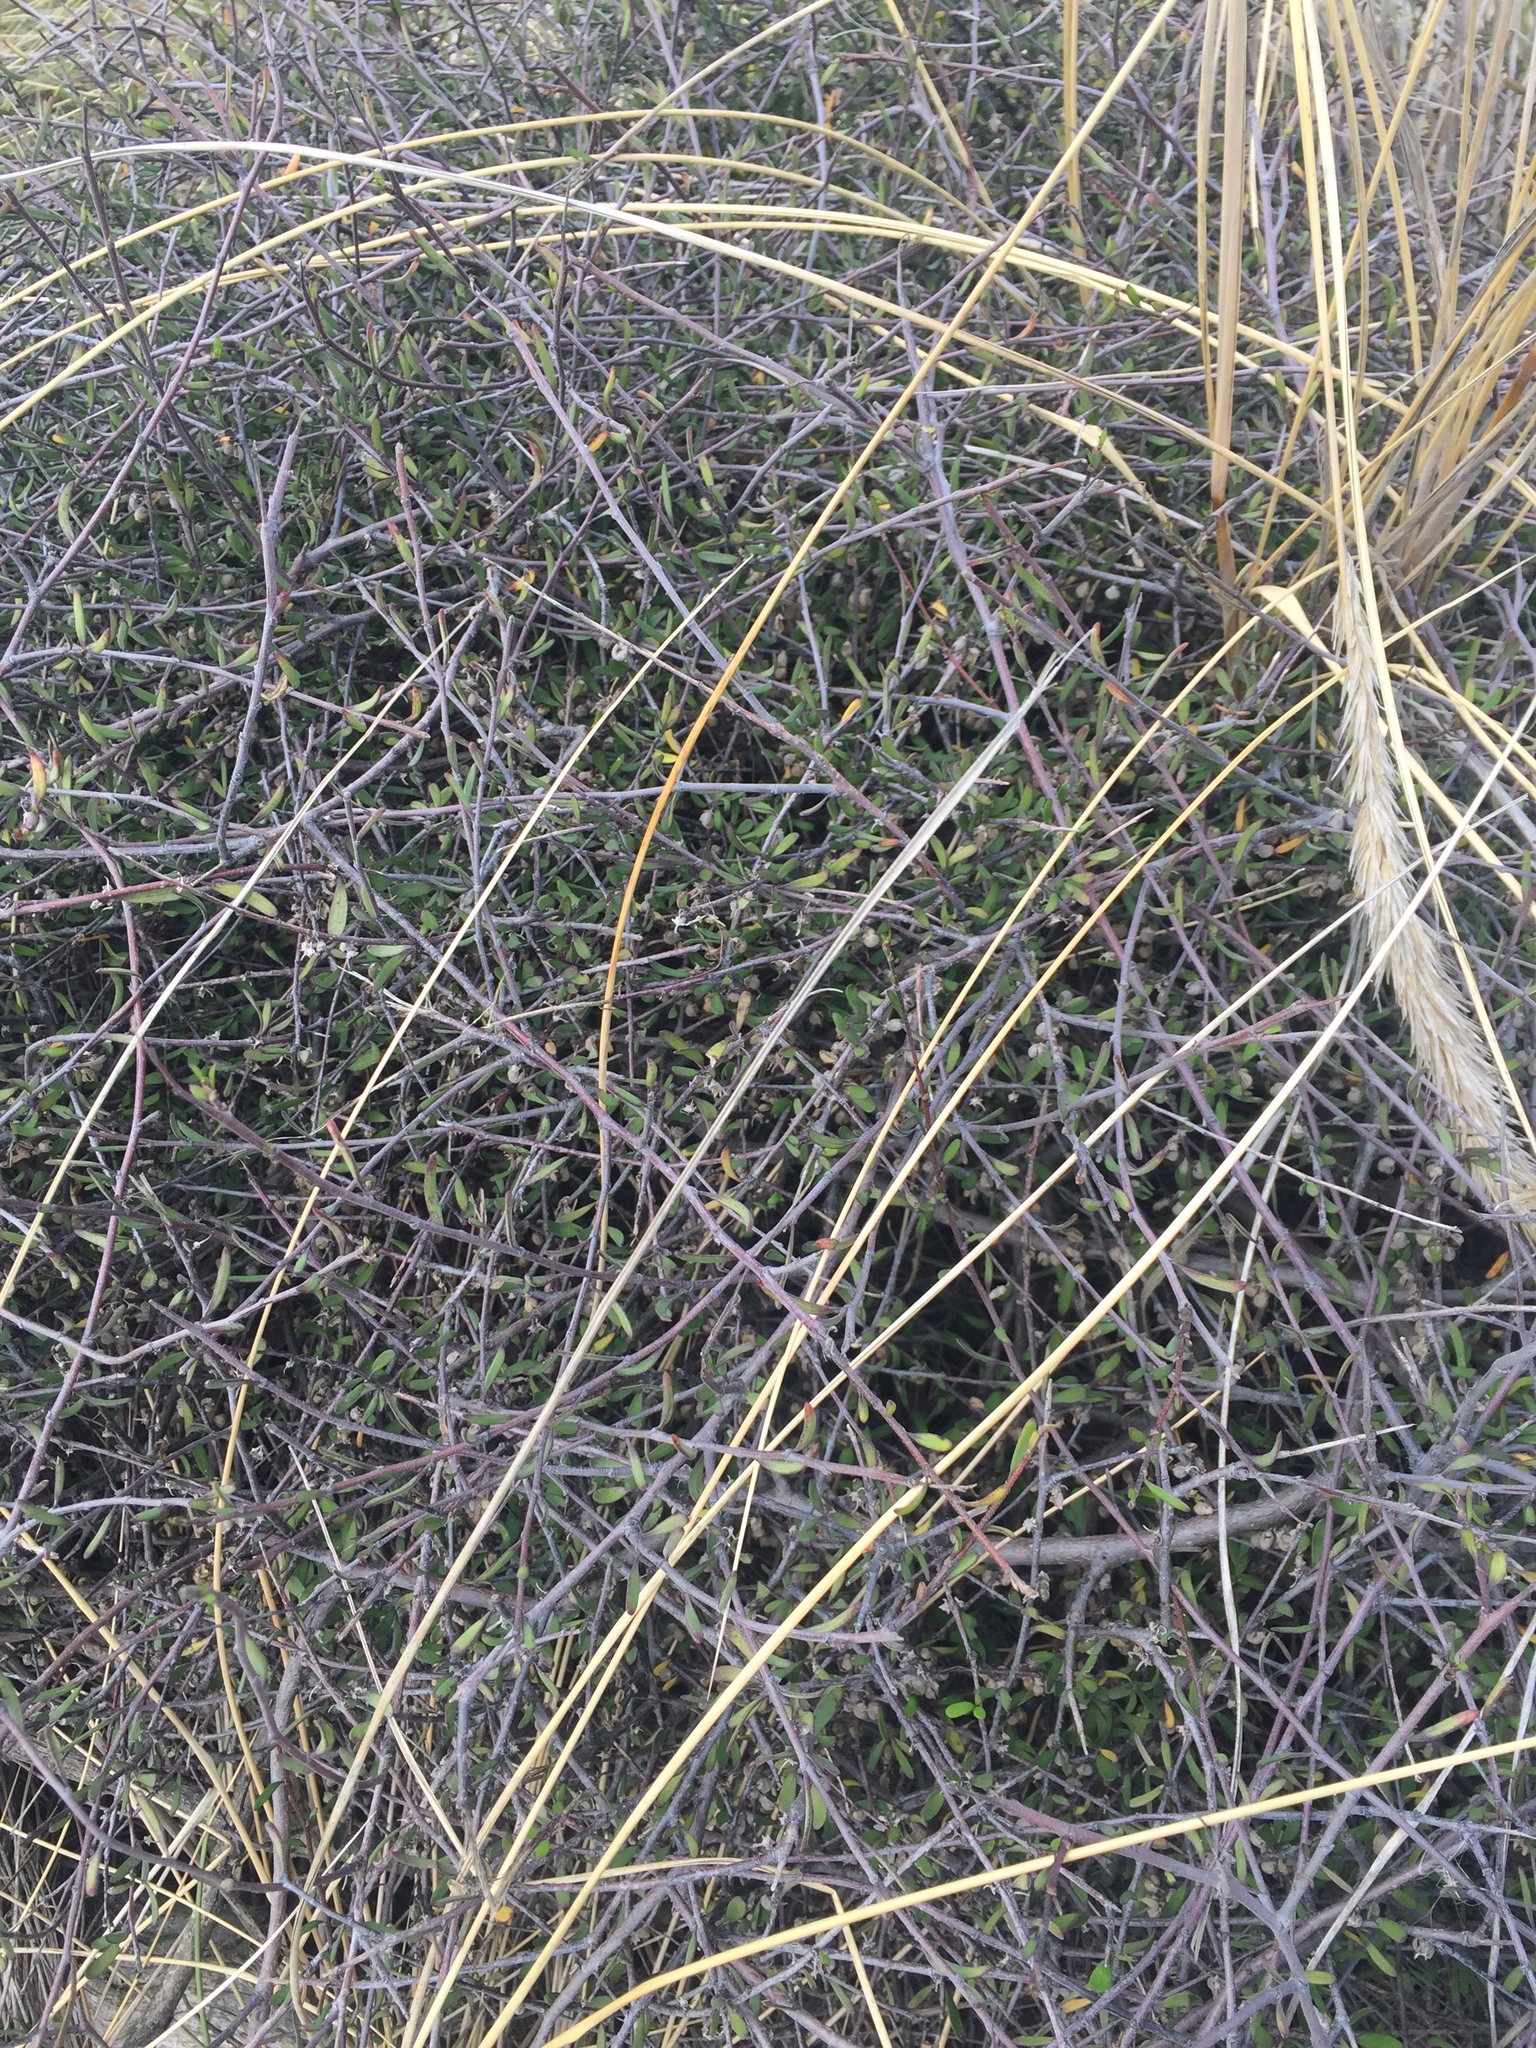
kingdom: Plantae
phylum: Tracheophyta
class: Magnoliopsida
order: Malvales
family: Malvaceae
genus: Plagianthus
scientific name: Plagianthus divaricatus
